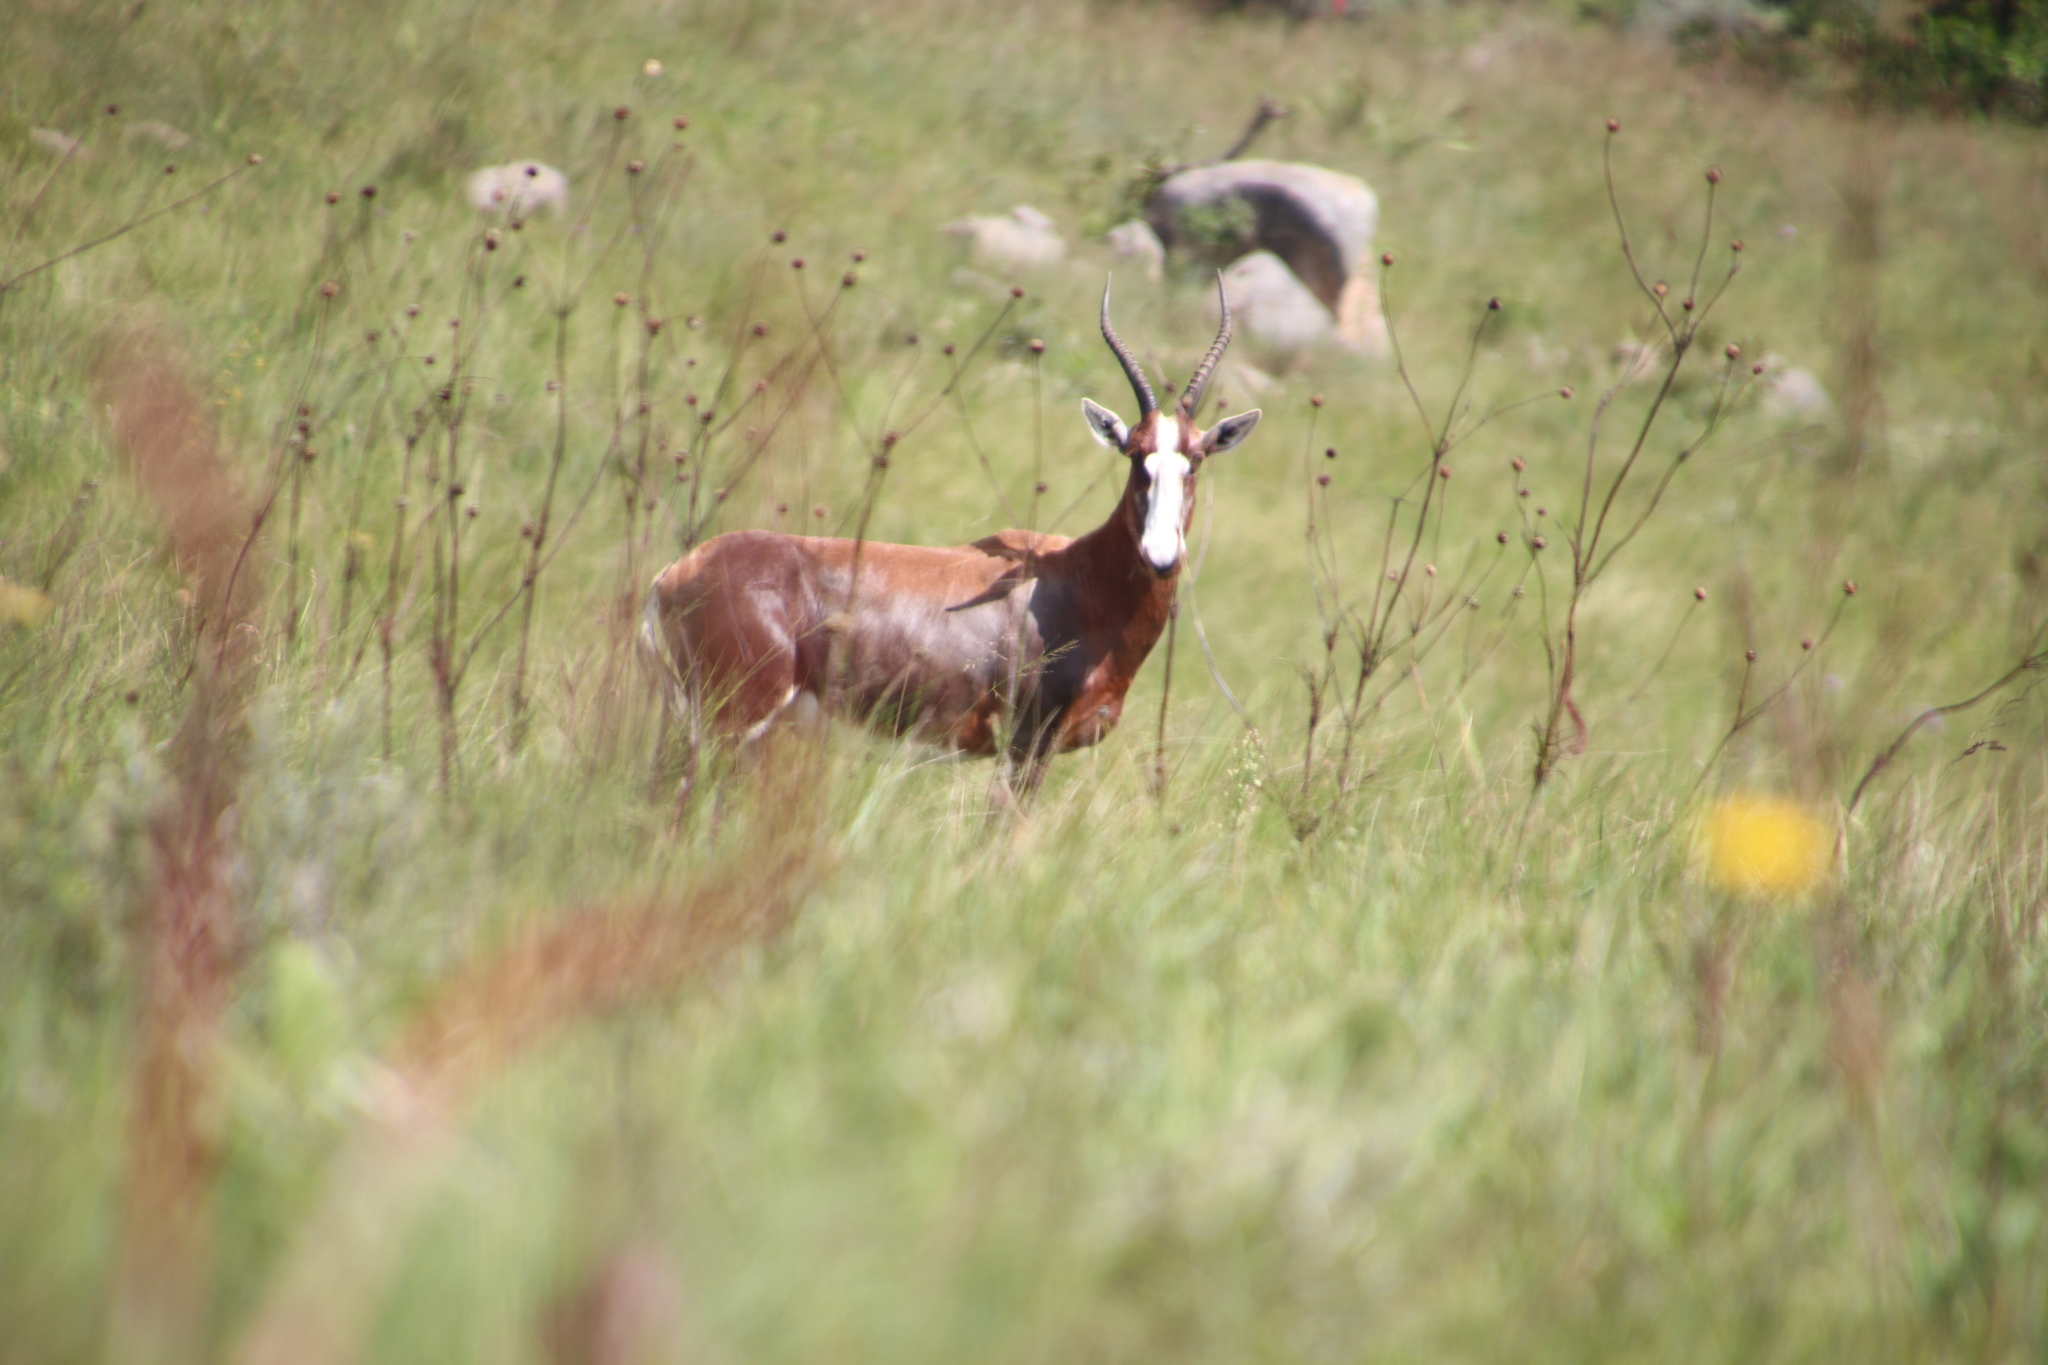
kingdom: Animalia
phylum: Chordata
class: Mammalia
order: Artiodactyla
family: Bovidae
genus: Damaliscus
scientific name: Damaliscus pygargus
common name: Bontebok
